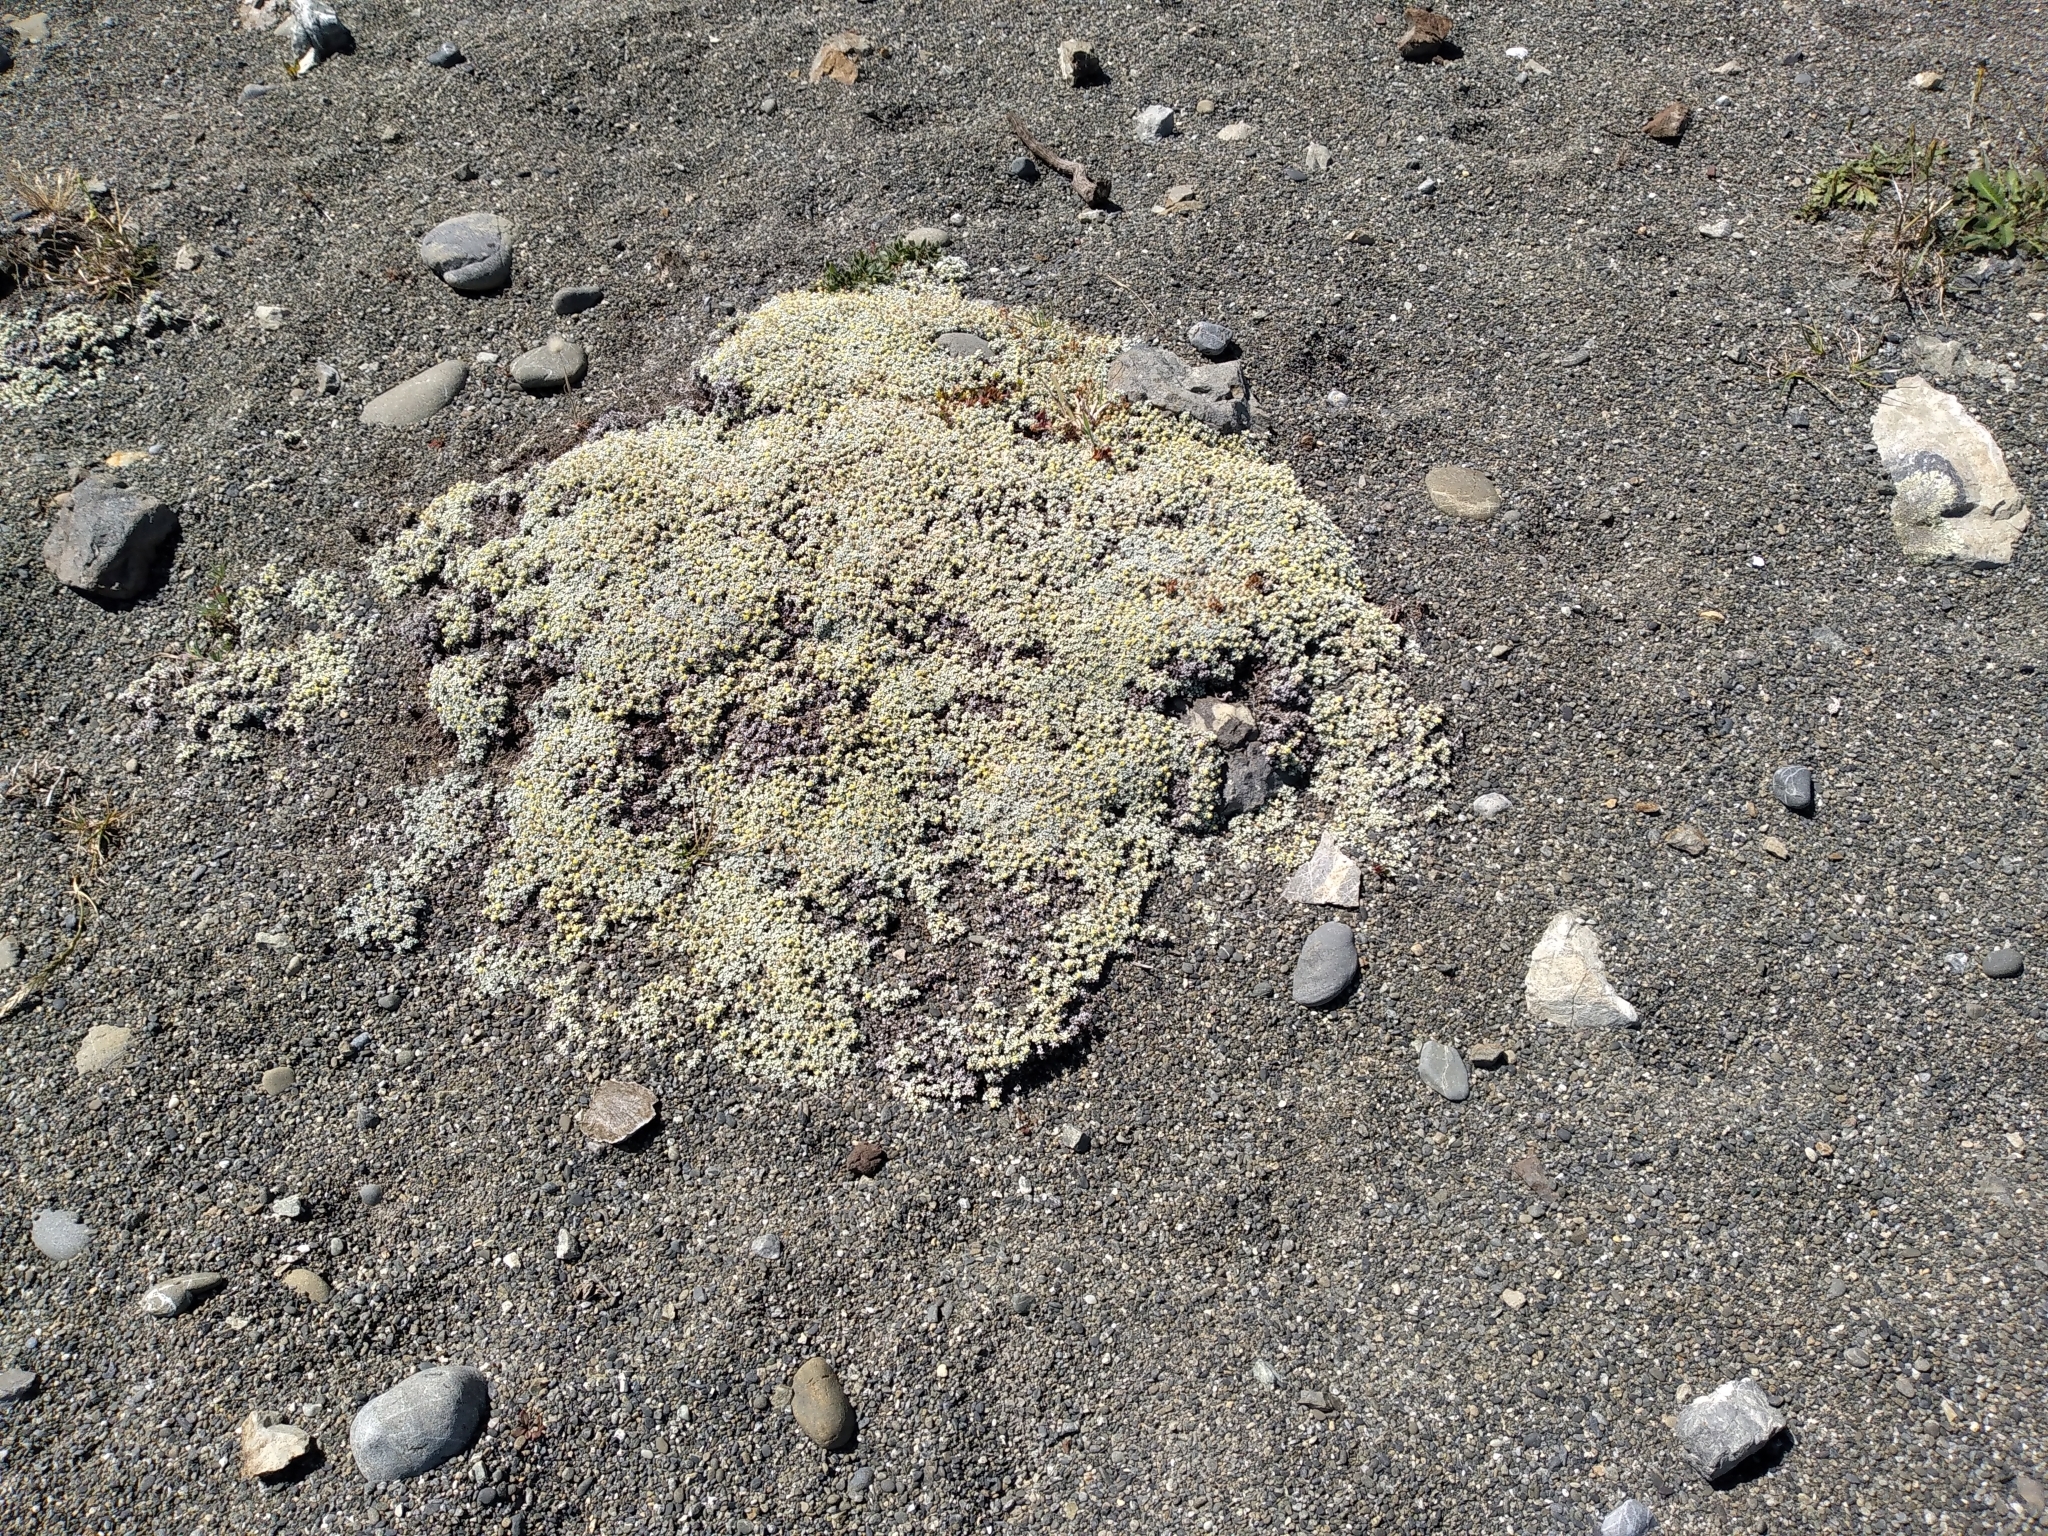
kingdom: Plantae
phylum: Tracheophyta
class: Magnoliopsida
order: Asterales
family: Asteraceae
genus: Raoulia
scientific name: Raoulia hookeri
